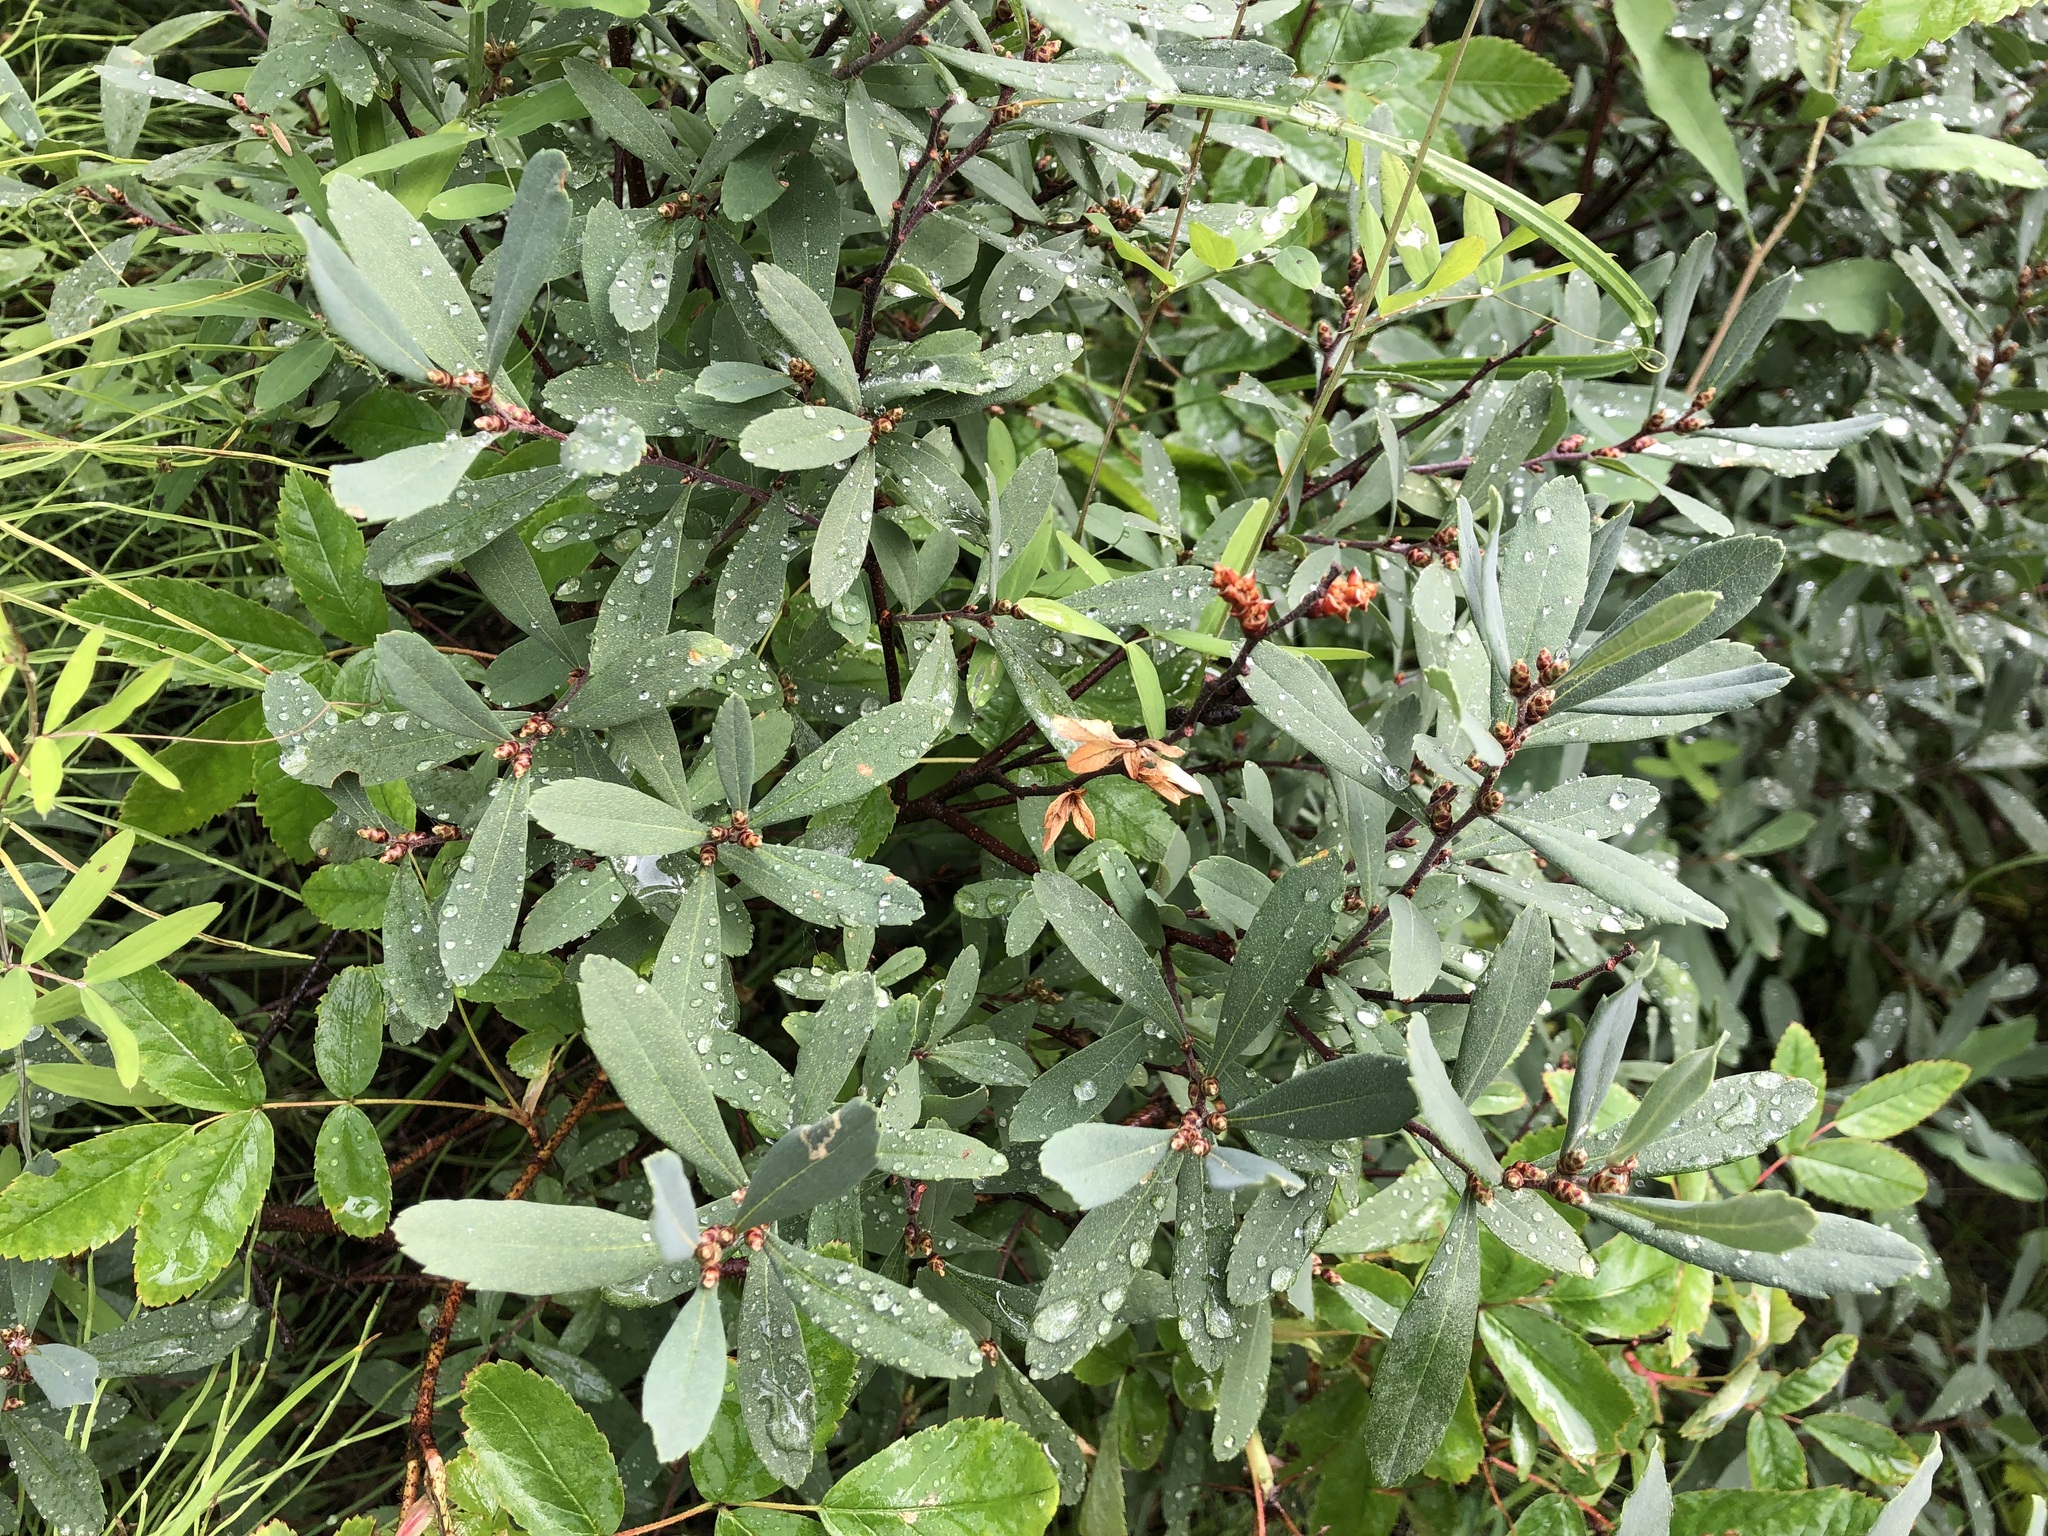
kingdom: Plantae
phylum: Tracheophyta
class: Magnoliopsida
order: Fagales
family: Myricaceae
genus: Myrica
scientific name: Myrica gale
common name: Sweet gale
